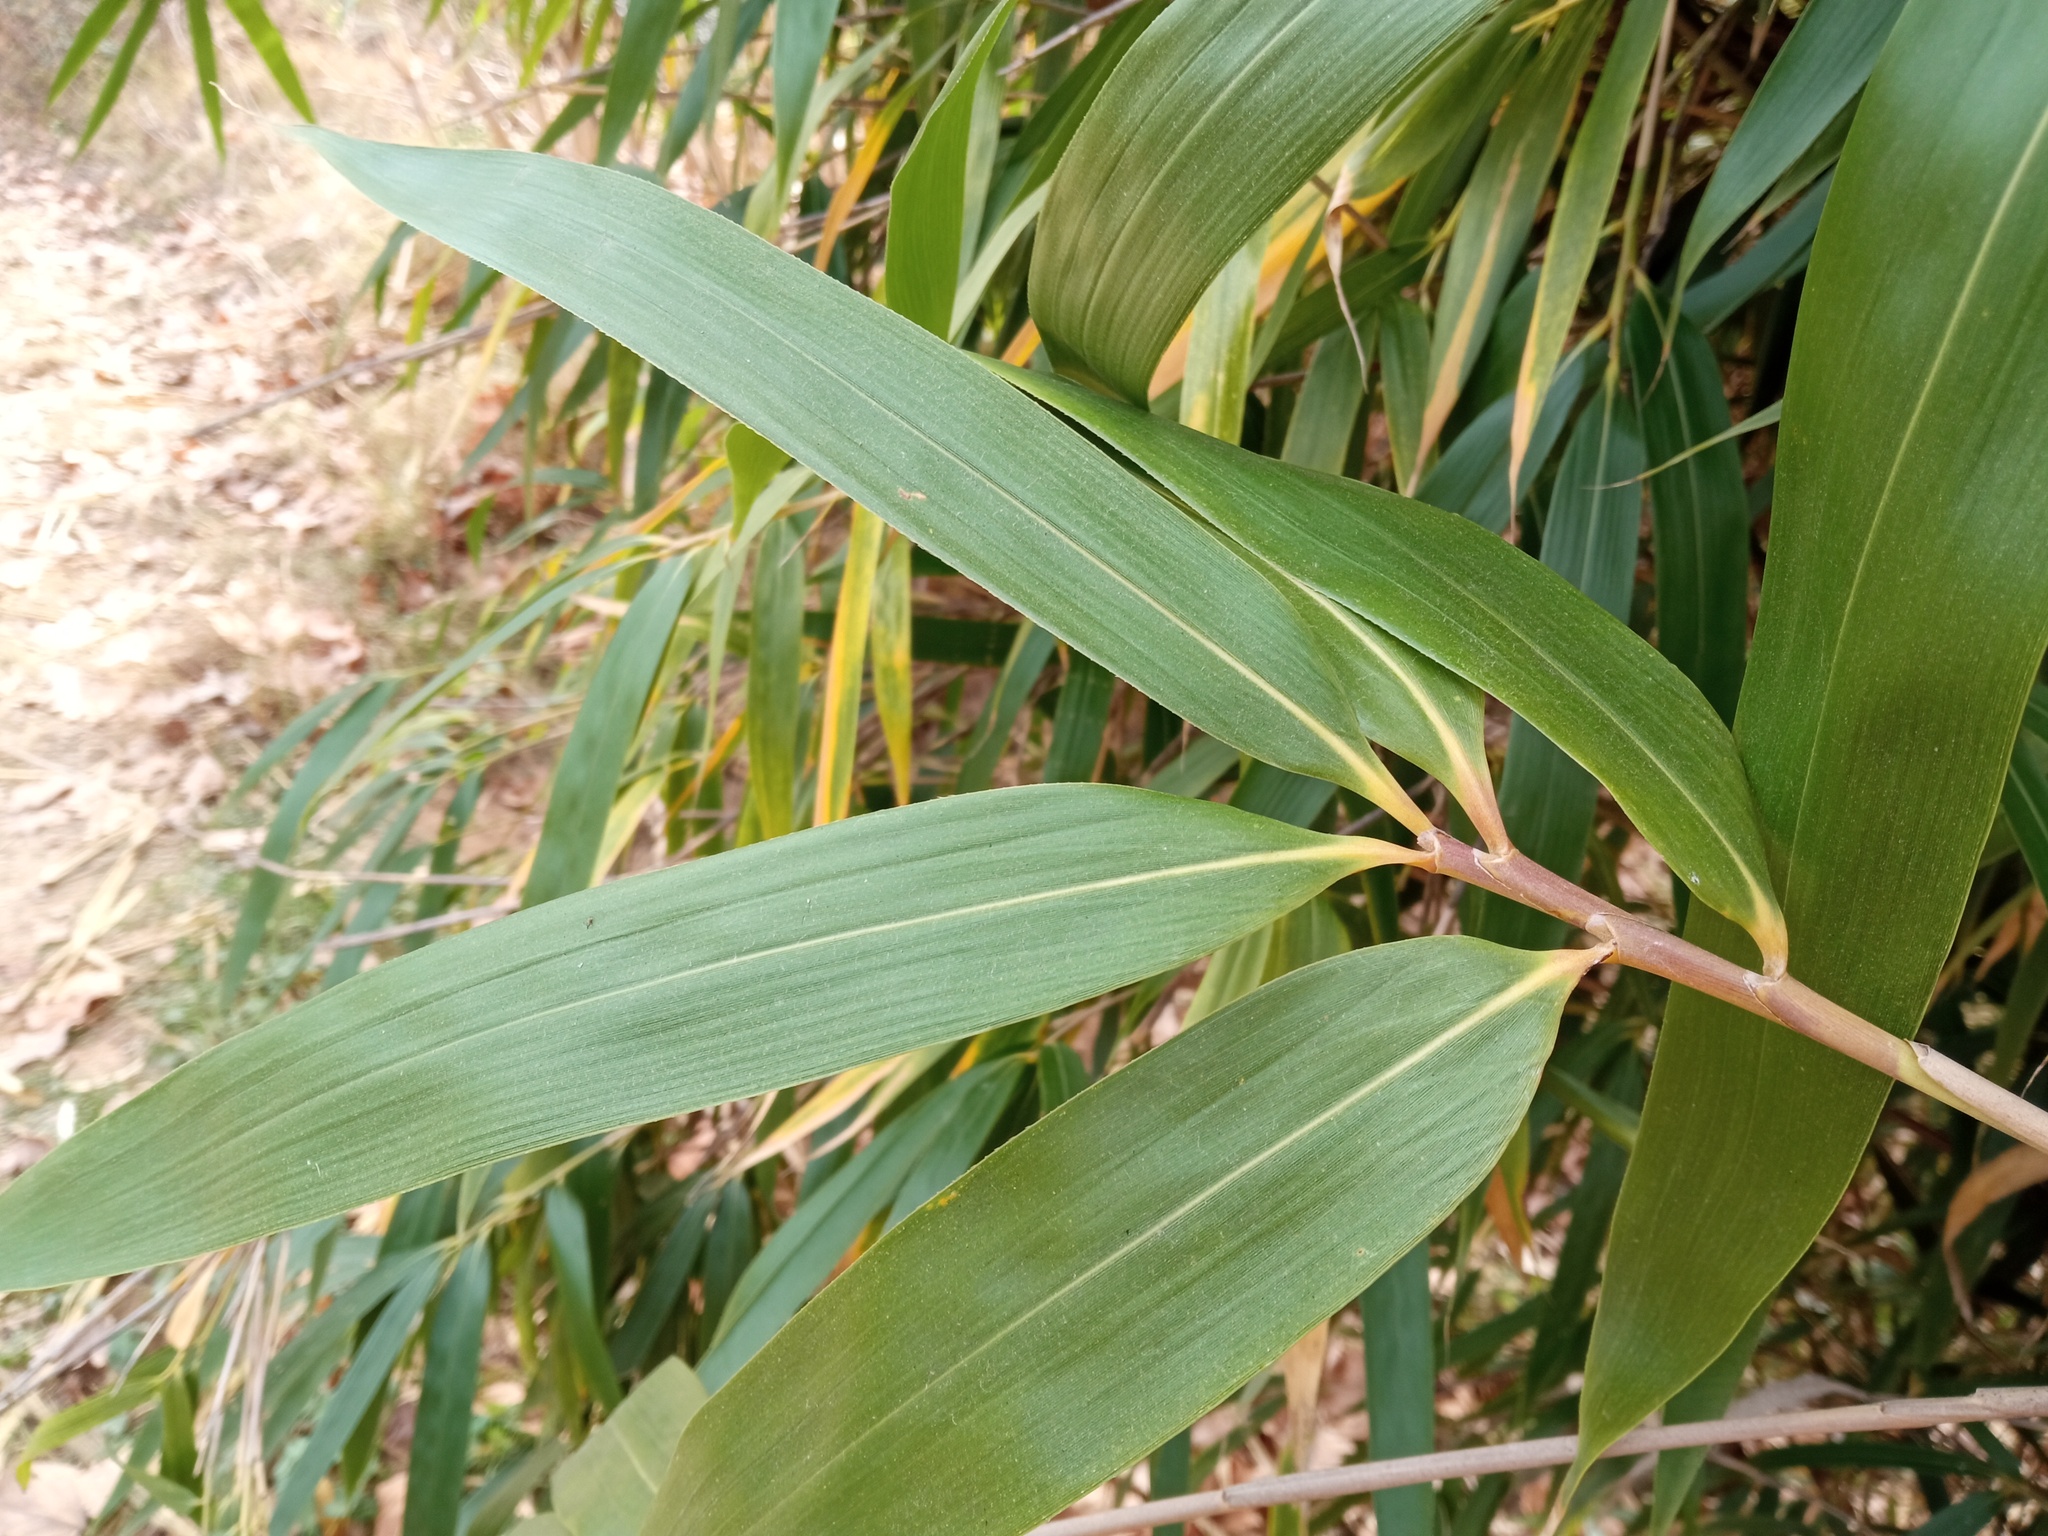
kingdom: Plantae
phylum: Tracheophyta
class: Liliopsida
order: Poales
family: Poaceae
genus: Pseudosasa
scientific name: Pseudosasa japonica
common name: Arrow bamboo
